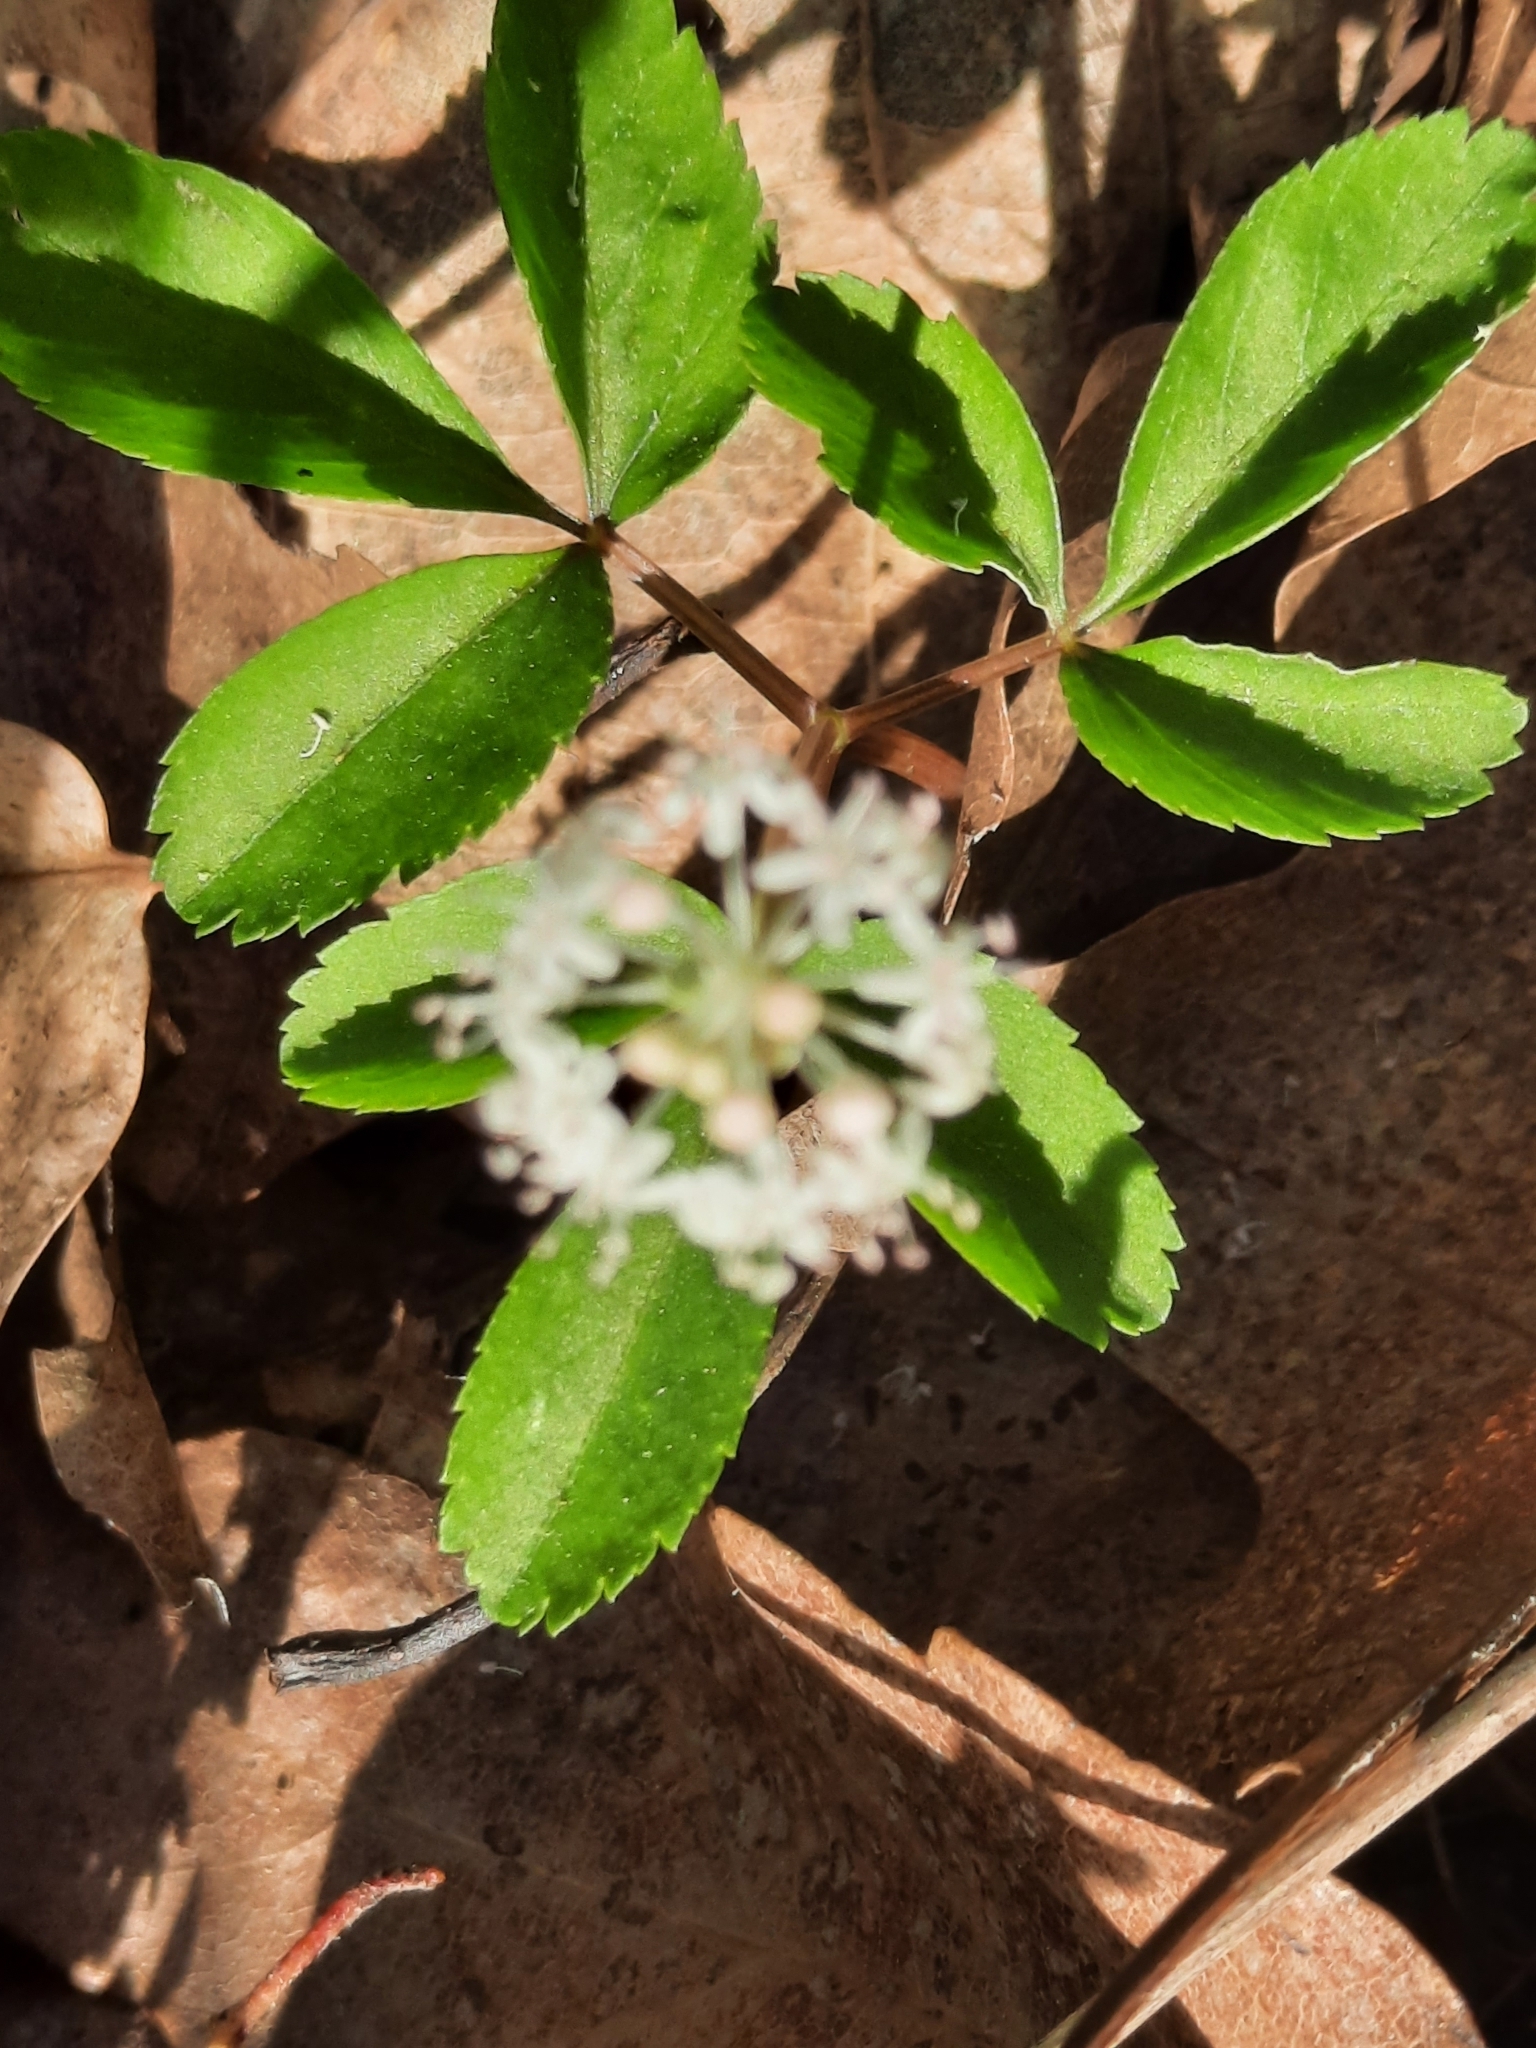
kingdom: Plantae
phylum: Tracheophyta
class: Magnoliopsida
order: Apiales
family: Araliaceae
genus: Panax
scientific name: Panax trifolius
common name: Dwarf ginseng
